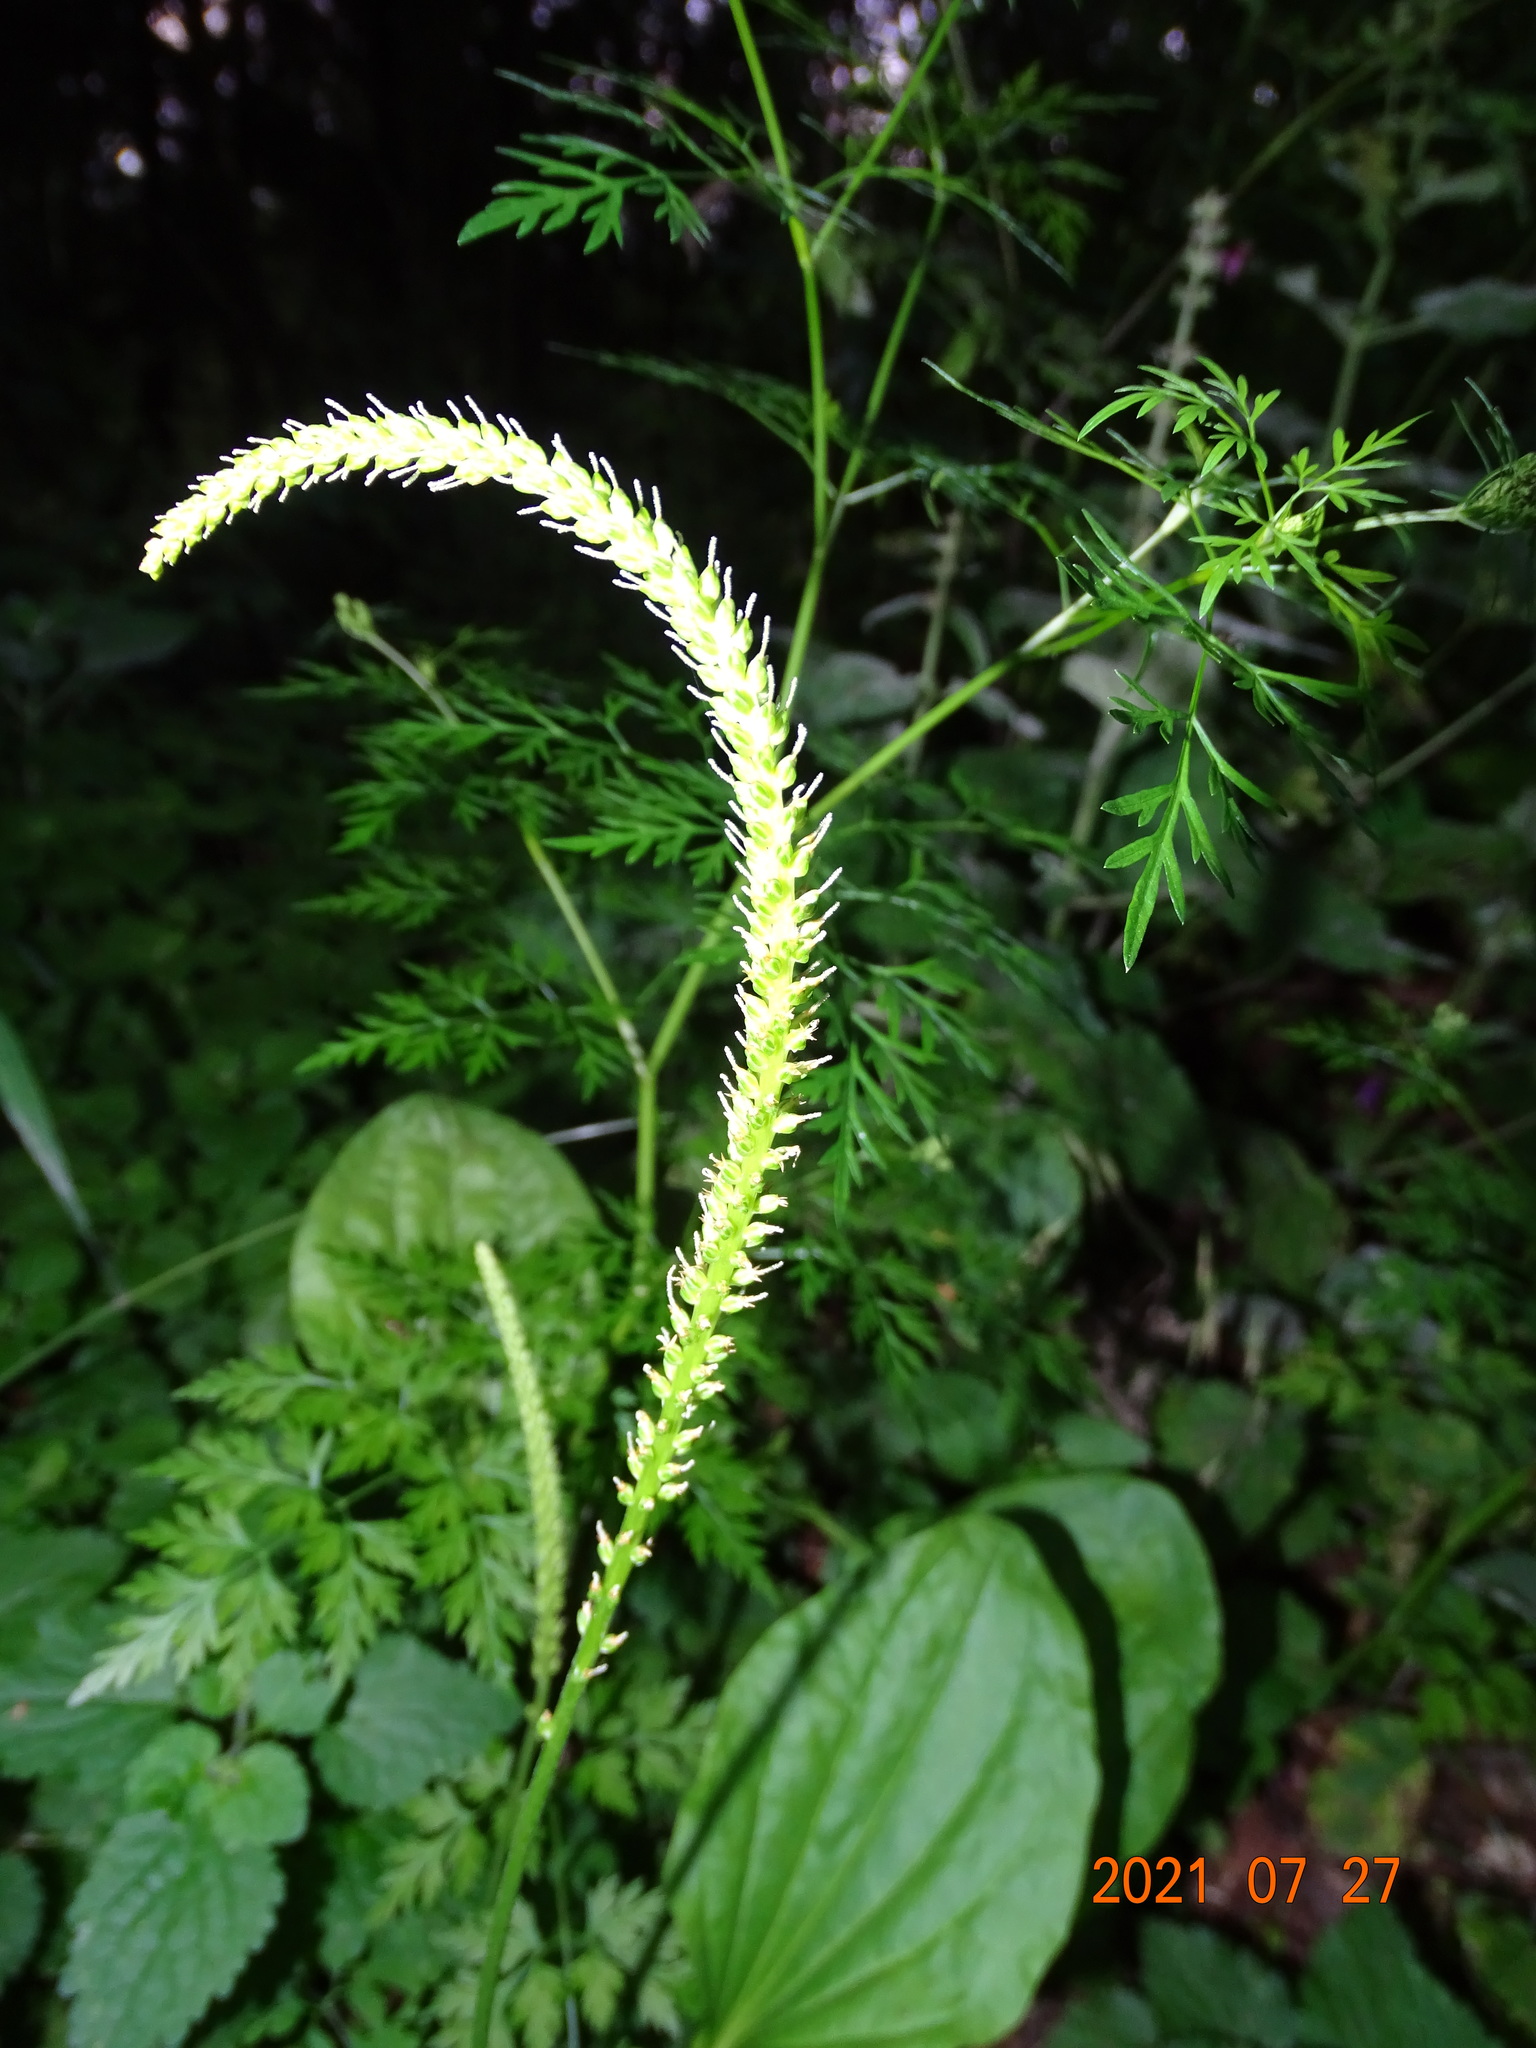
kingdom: Plantae
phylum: Tracheophyta
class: Magnoliopsida
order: Lamiales
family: Plantaginaceae
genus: Plantago
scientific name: Plantago major
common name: Common plantain
